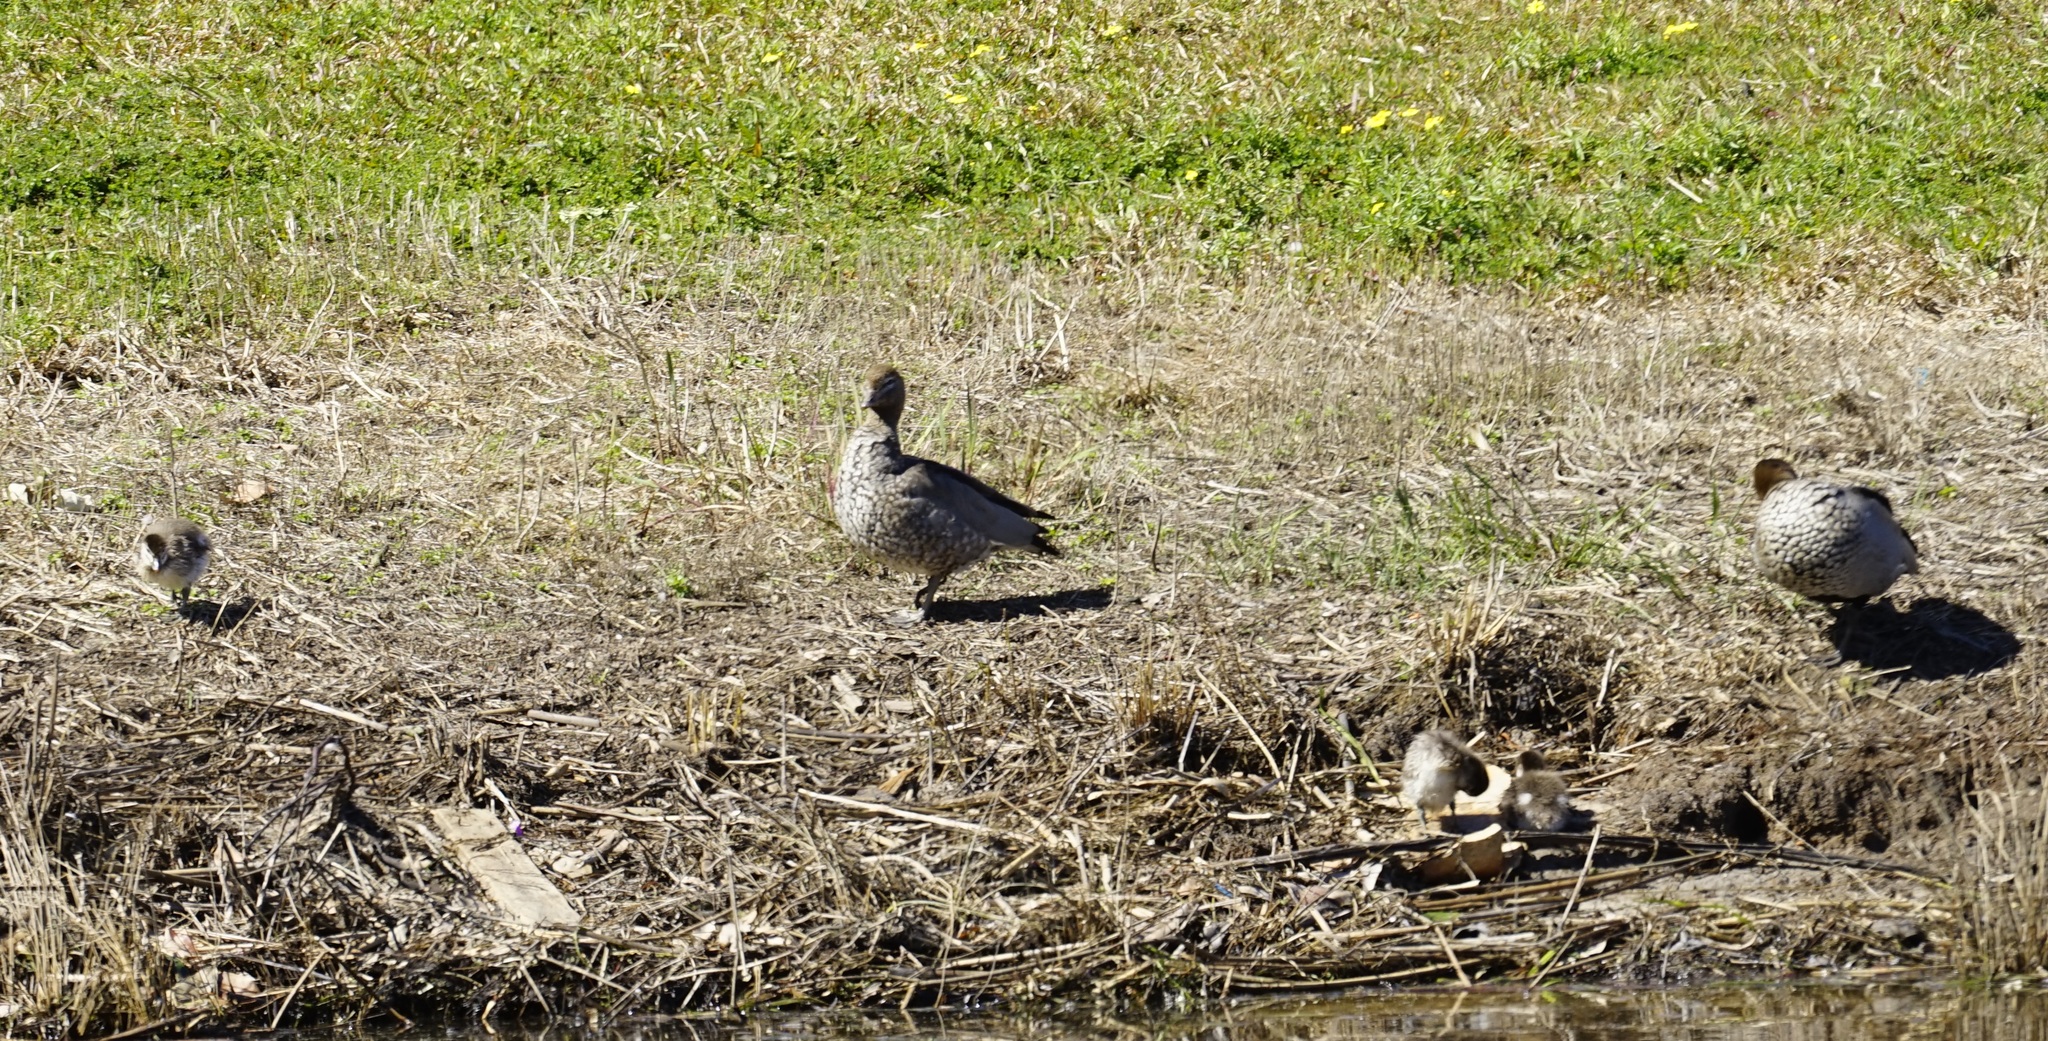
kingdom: Animalia
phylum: Chordata
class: Aves
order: Anseriformes
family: Anatidae
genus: Chenonetta
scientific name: Chenonetta jubata
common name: Maned duck
